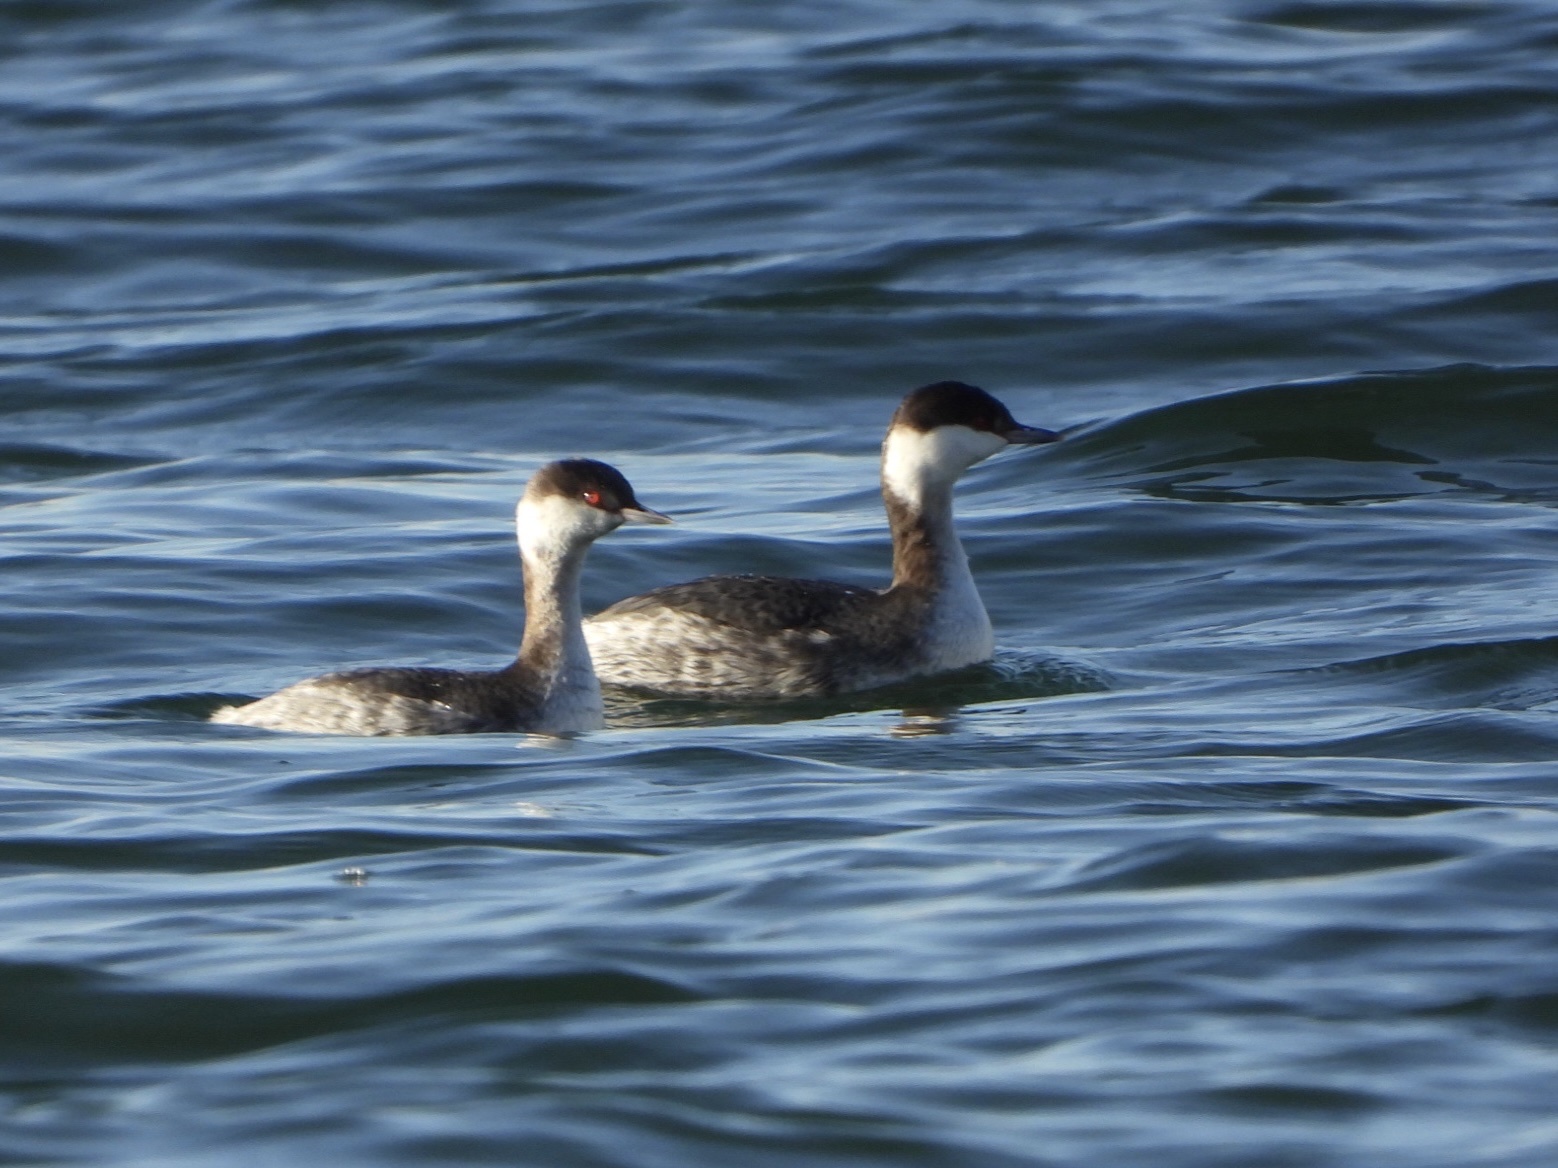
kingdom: Animalia
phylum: Chordata
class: Aves
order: Podicipediformes
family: Podicipedidae
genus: Podiceps
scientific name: Podiceps auritus
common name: Horned grebe
